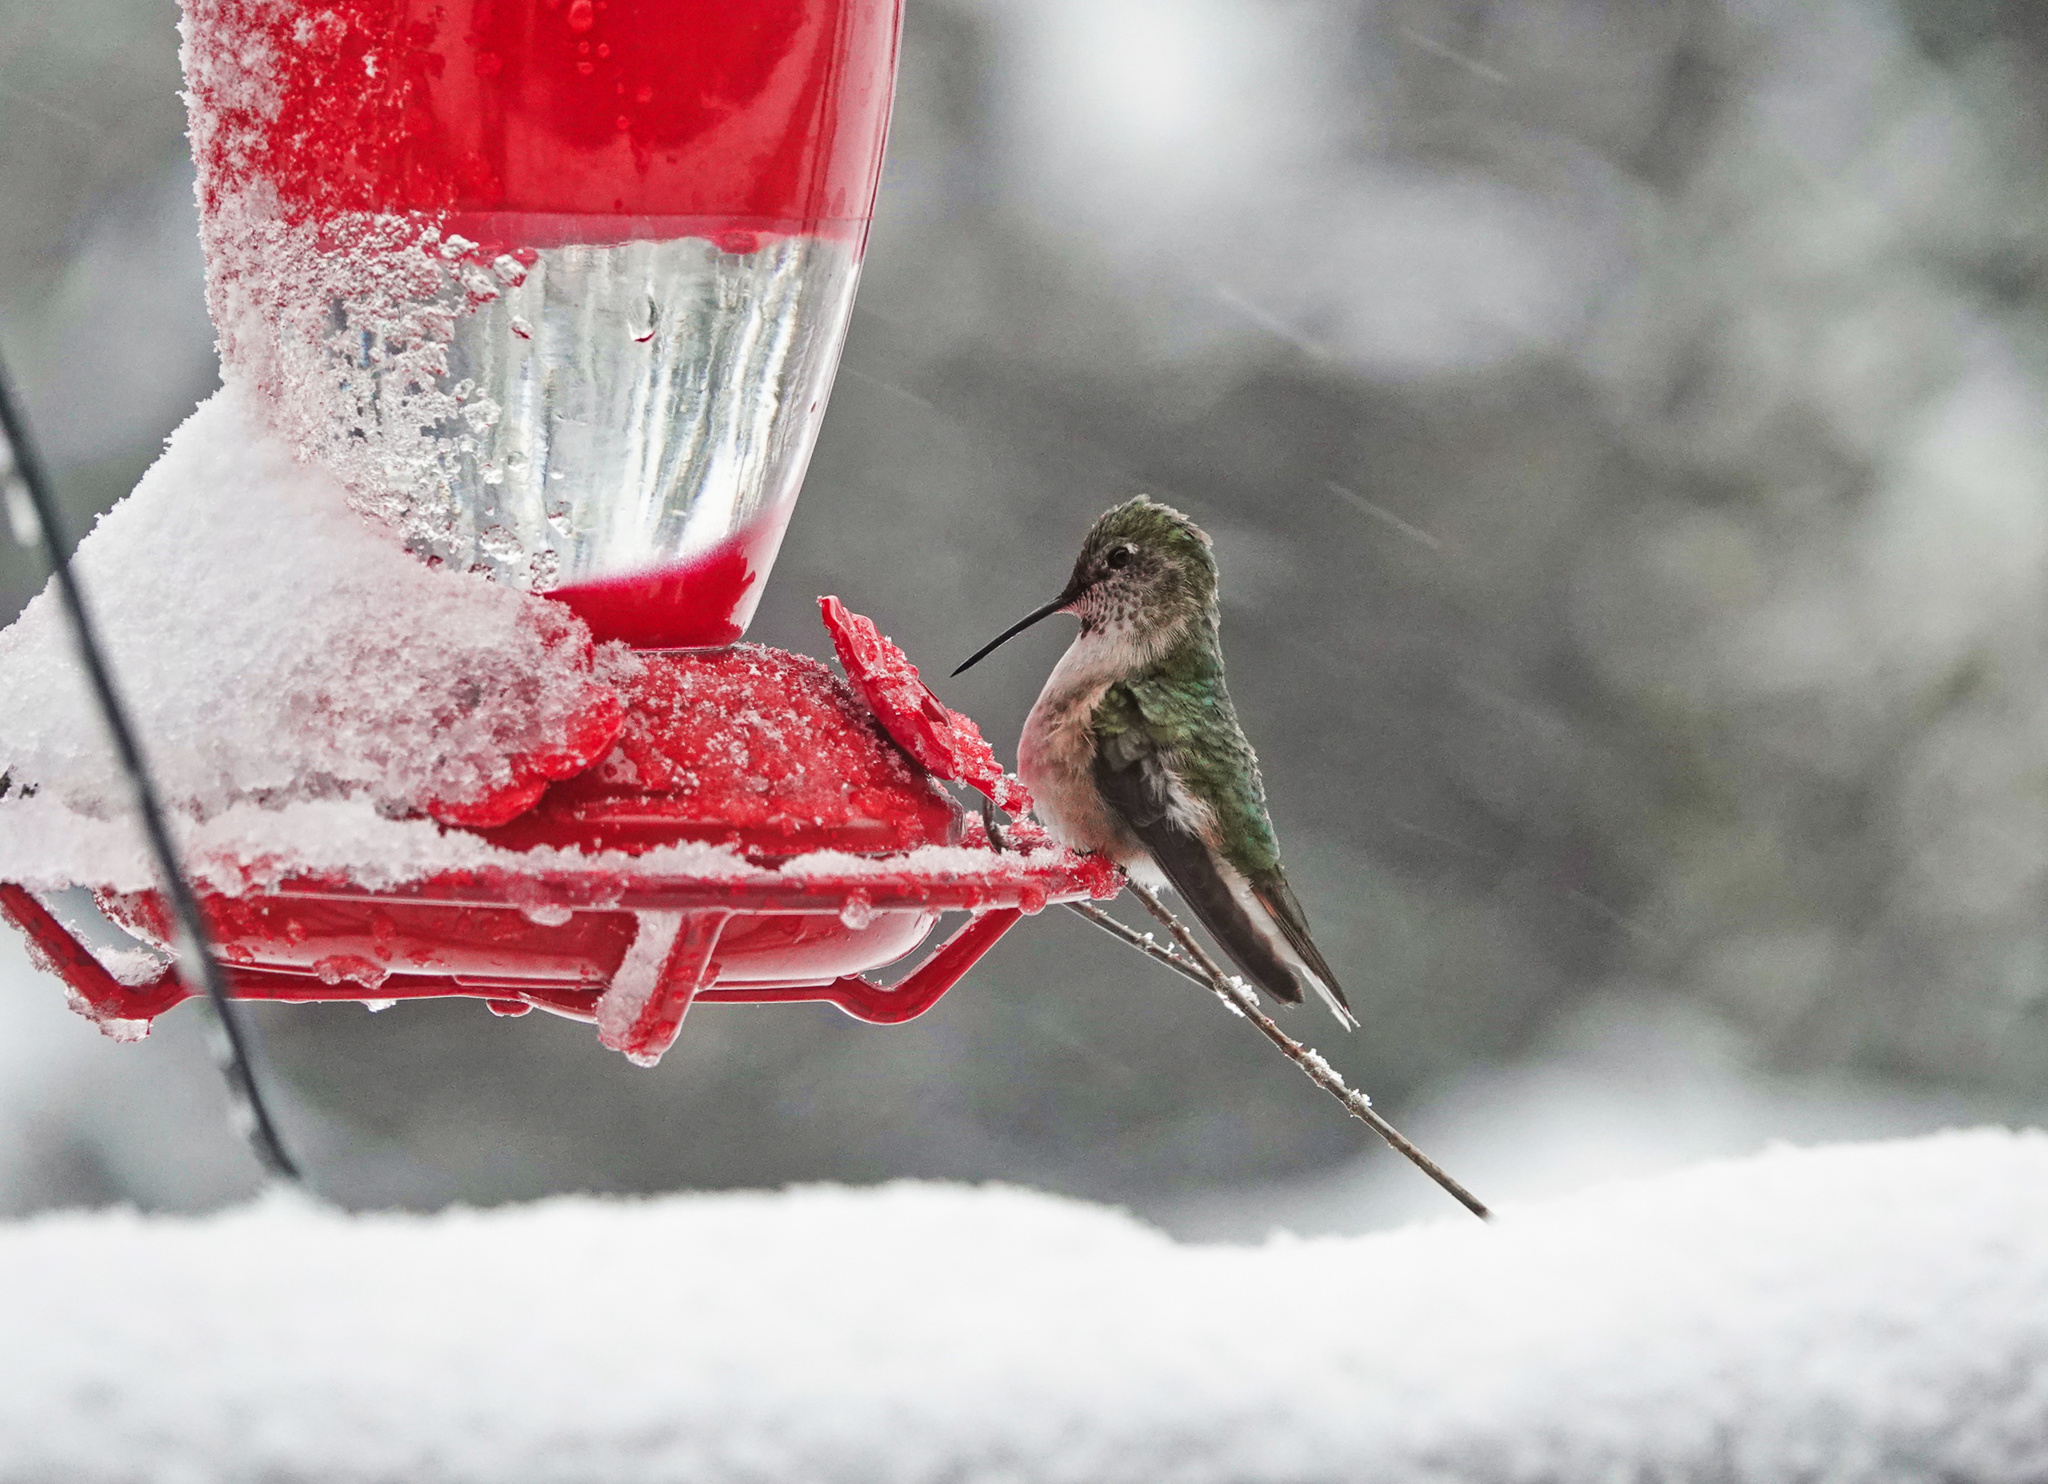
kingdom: Animalia
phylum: Chordata
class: Aves
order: Apodiformes
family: Trochilidae
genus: Selasphorus
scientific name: Selasphorus platycercus
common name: Broad-tailed hummingbird
